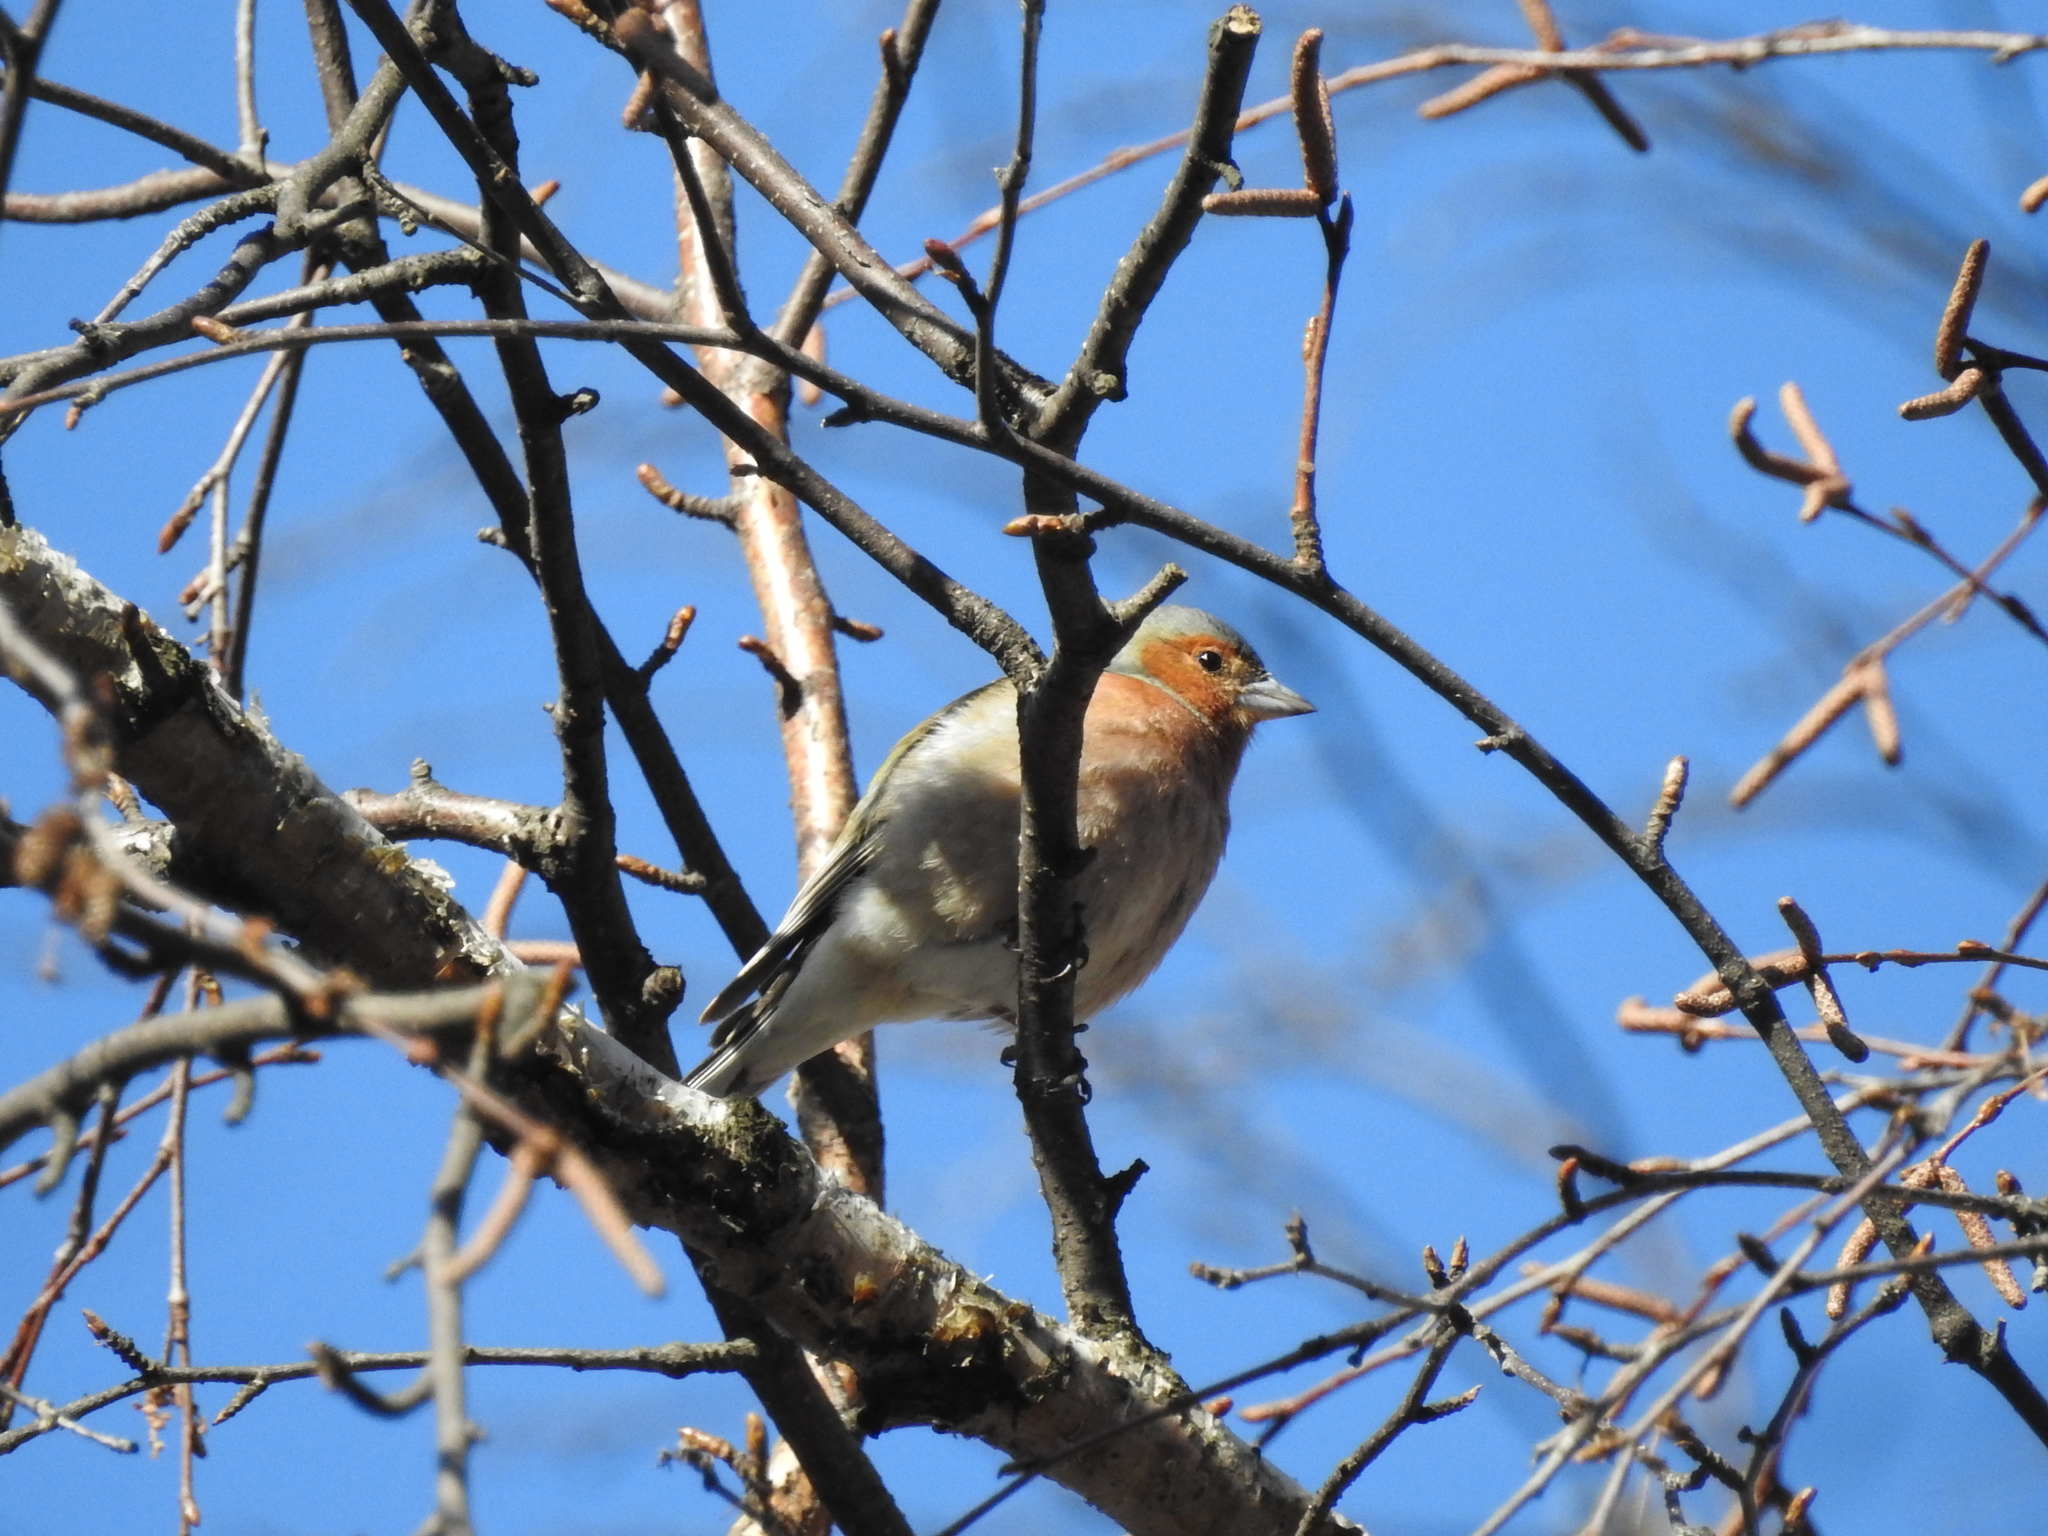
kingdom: Animalia
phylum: Chordata
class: Aves
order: Passeriformes
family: Fringillidae
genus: Fringilla
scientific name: Fringilla coelebs
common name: Common chaffinch
